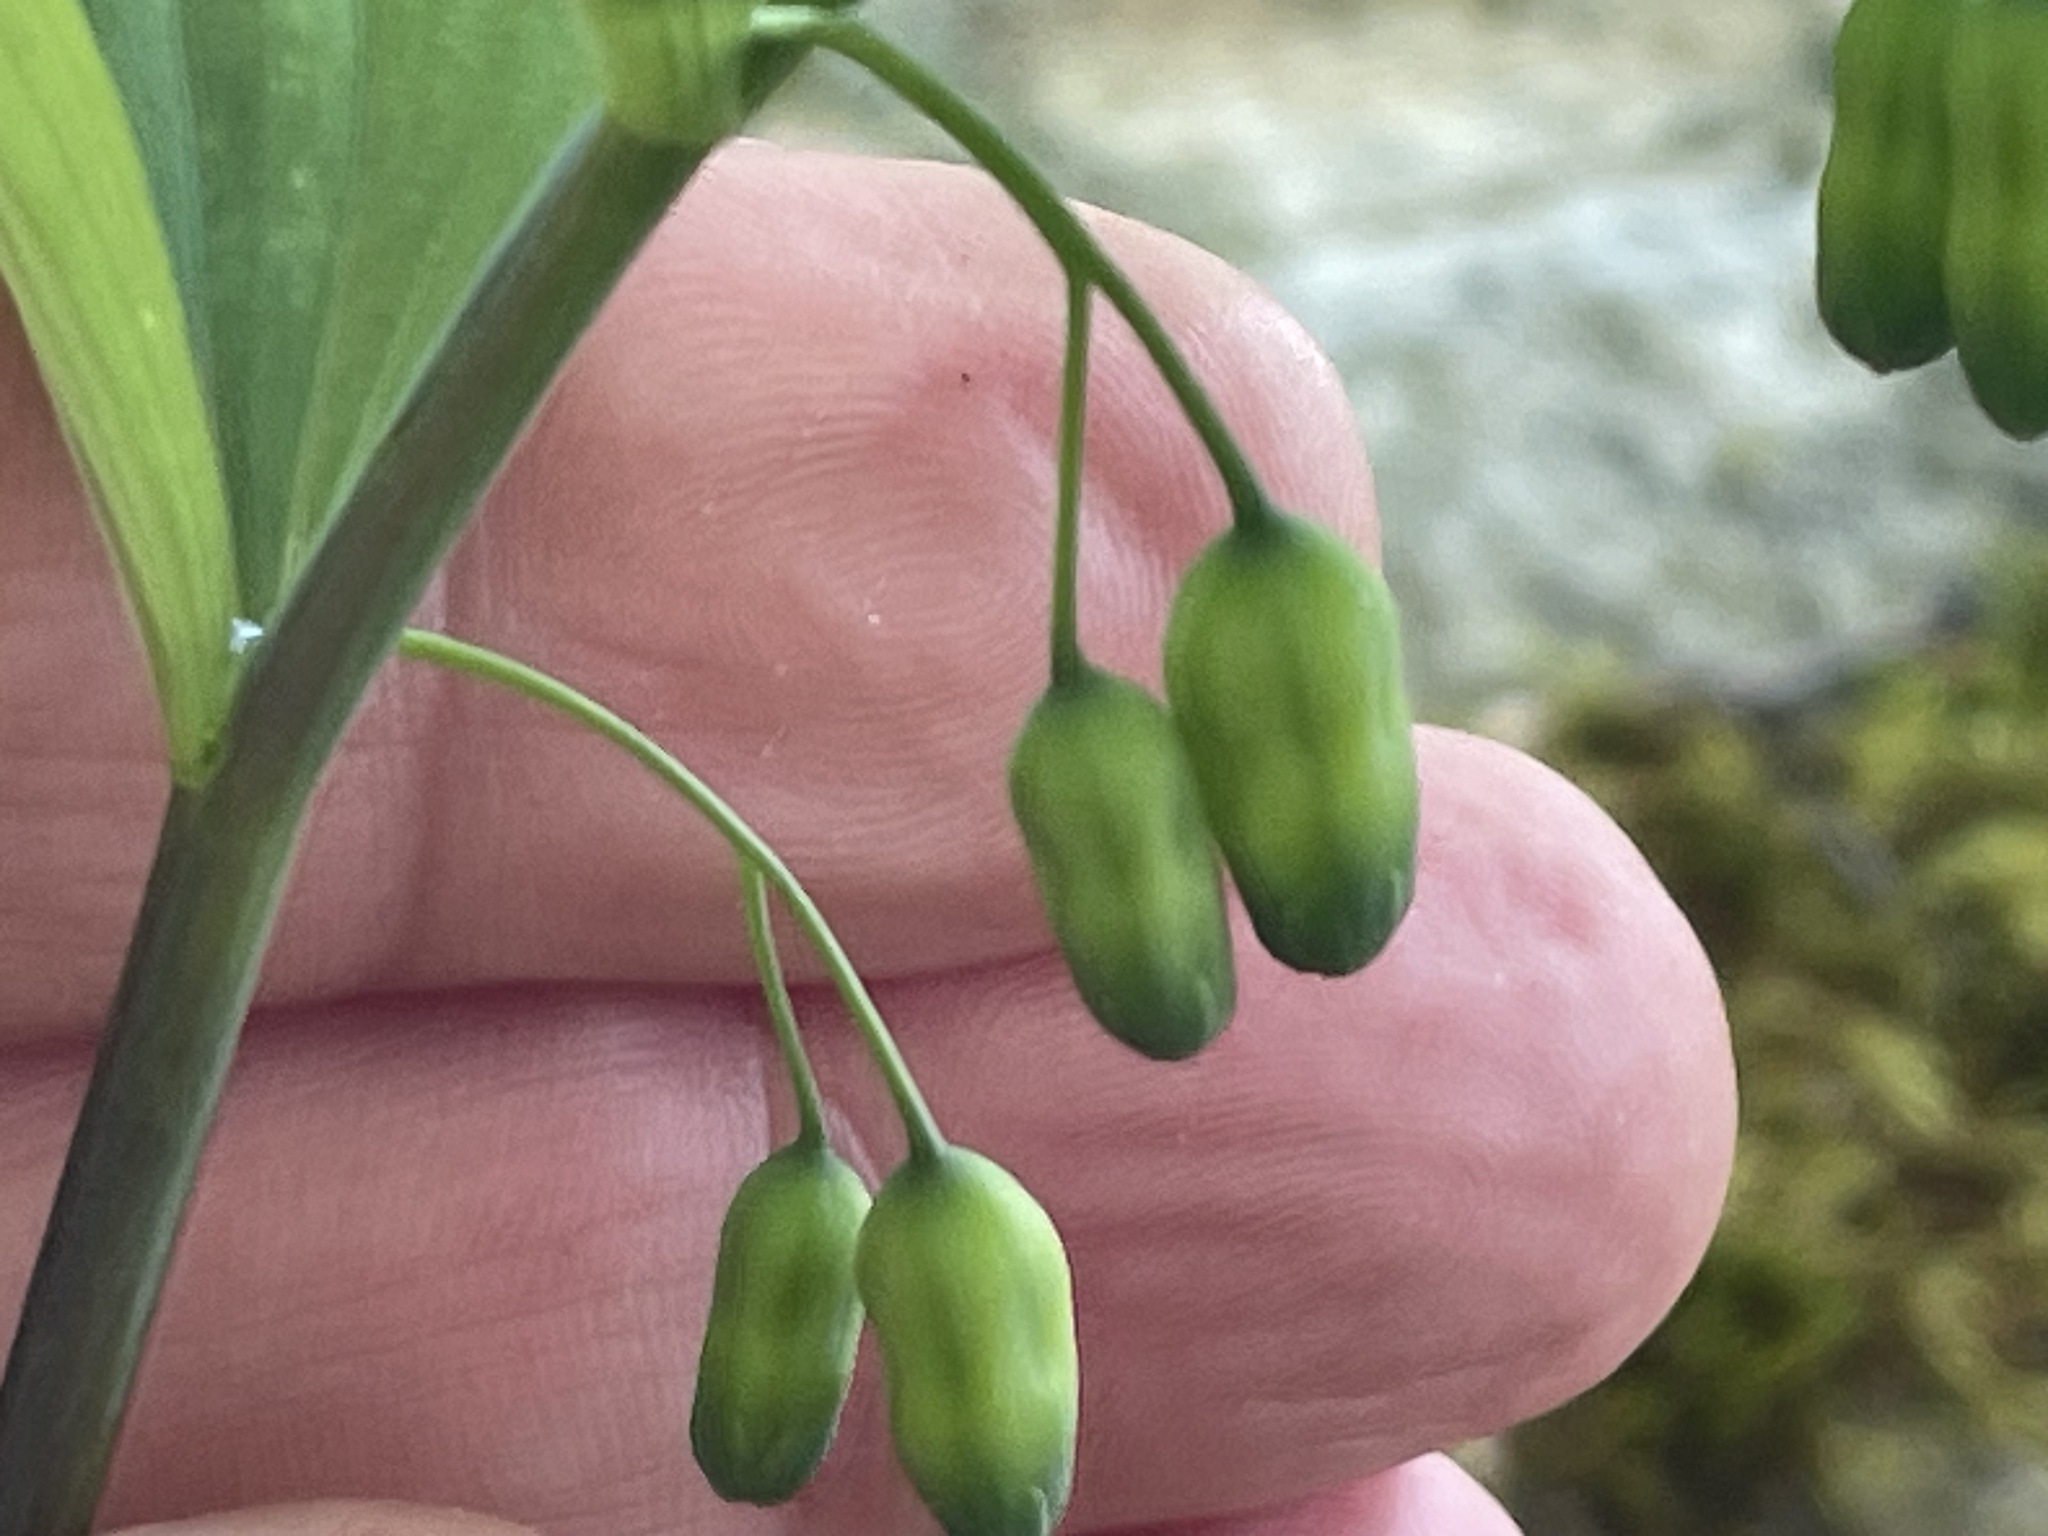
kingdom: Plantae
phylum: Tracheophyta
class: Liliopsida
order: Asparagales
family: Asparagaceae
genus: Polygonatum
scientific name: Polygonatum pubescens
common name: Downy solomon's seal
